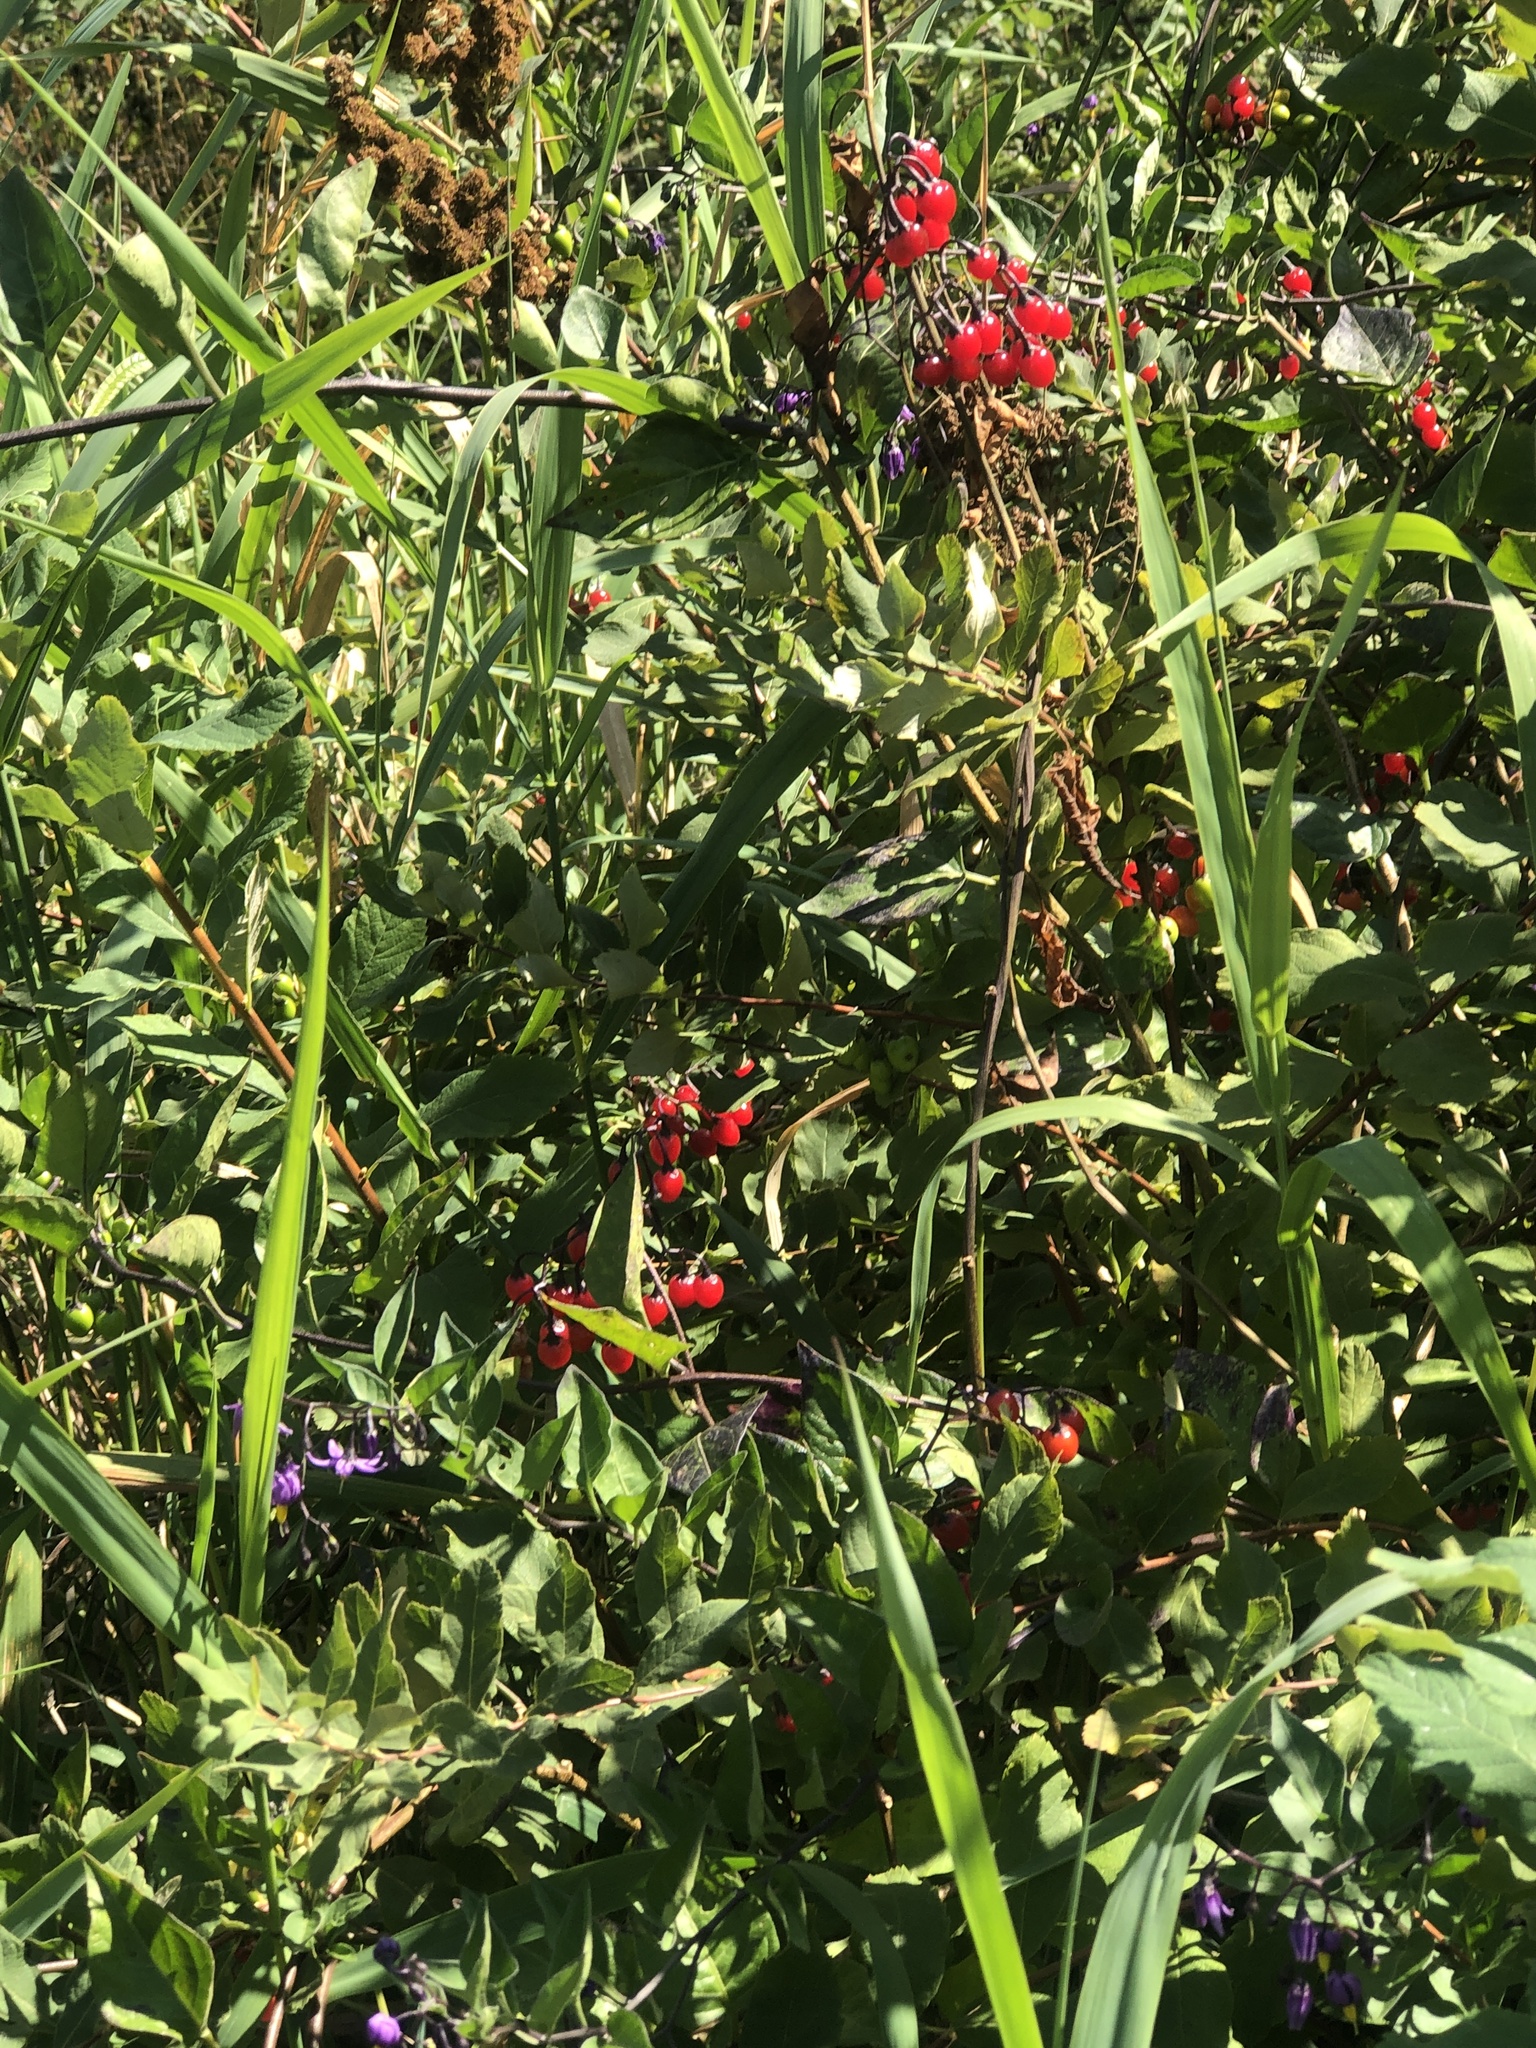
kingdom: Plantae
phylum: Tracheophyta
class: Magnoliopsida
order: Solanales
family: Solanaceae
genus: Solanum
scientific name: Solanum dulcamara
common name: Climbing nightshade
